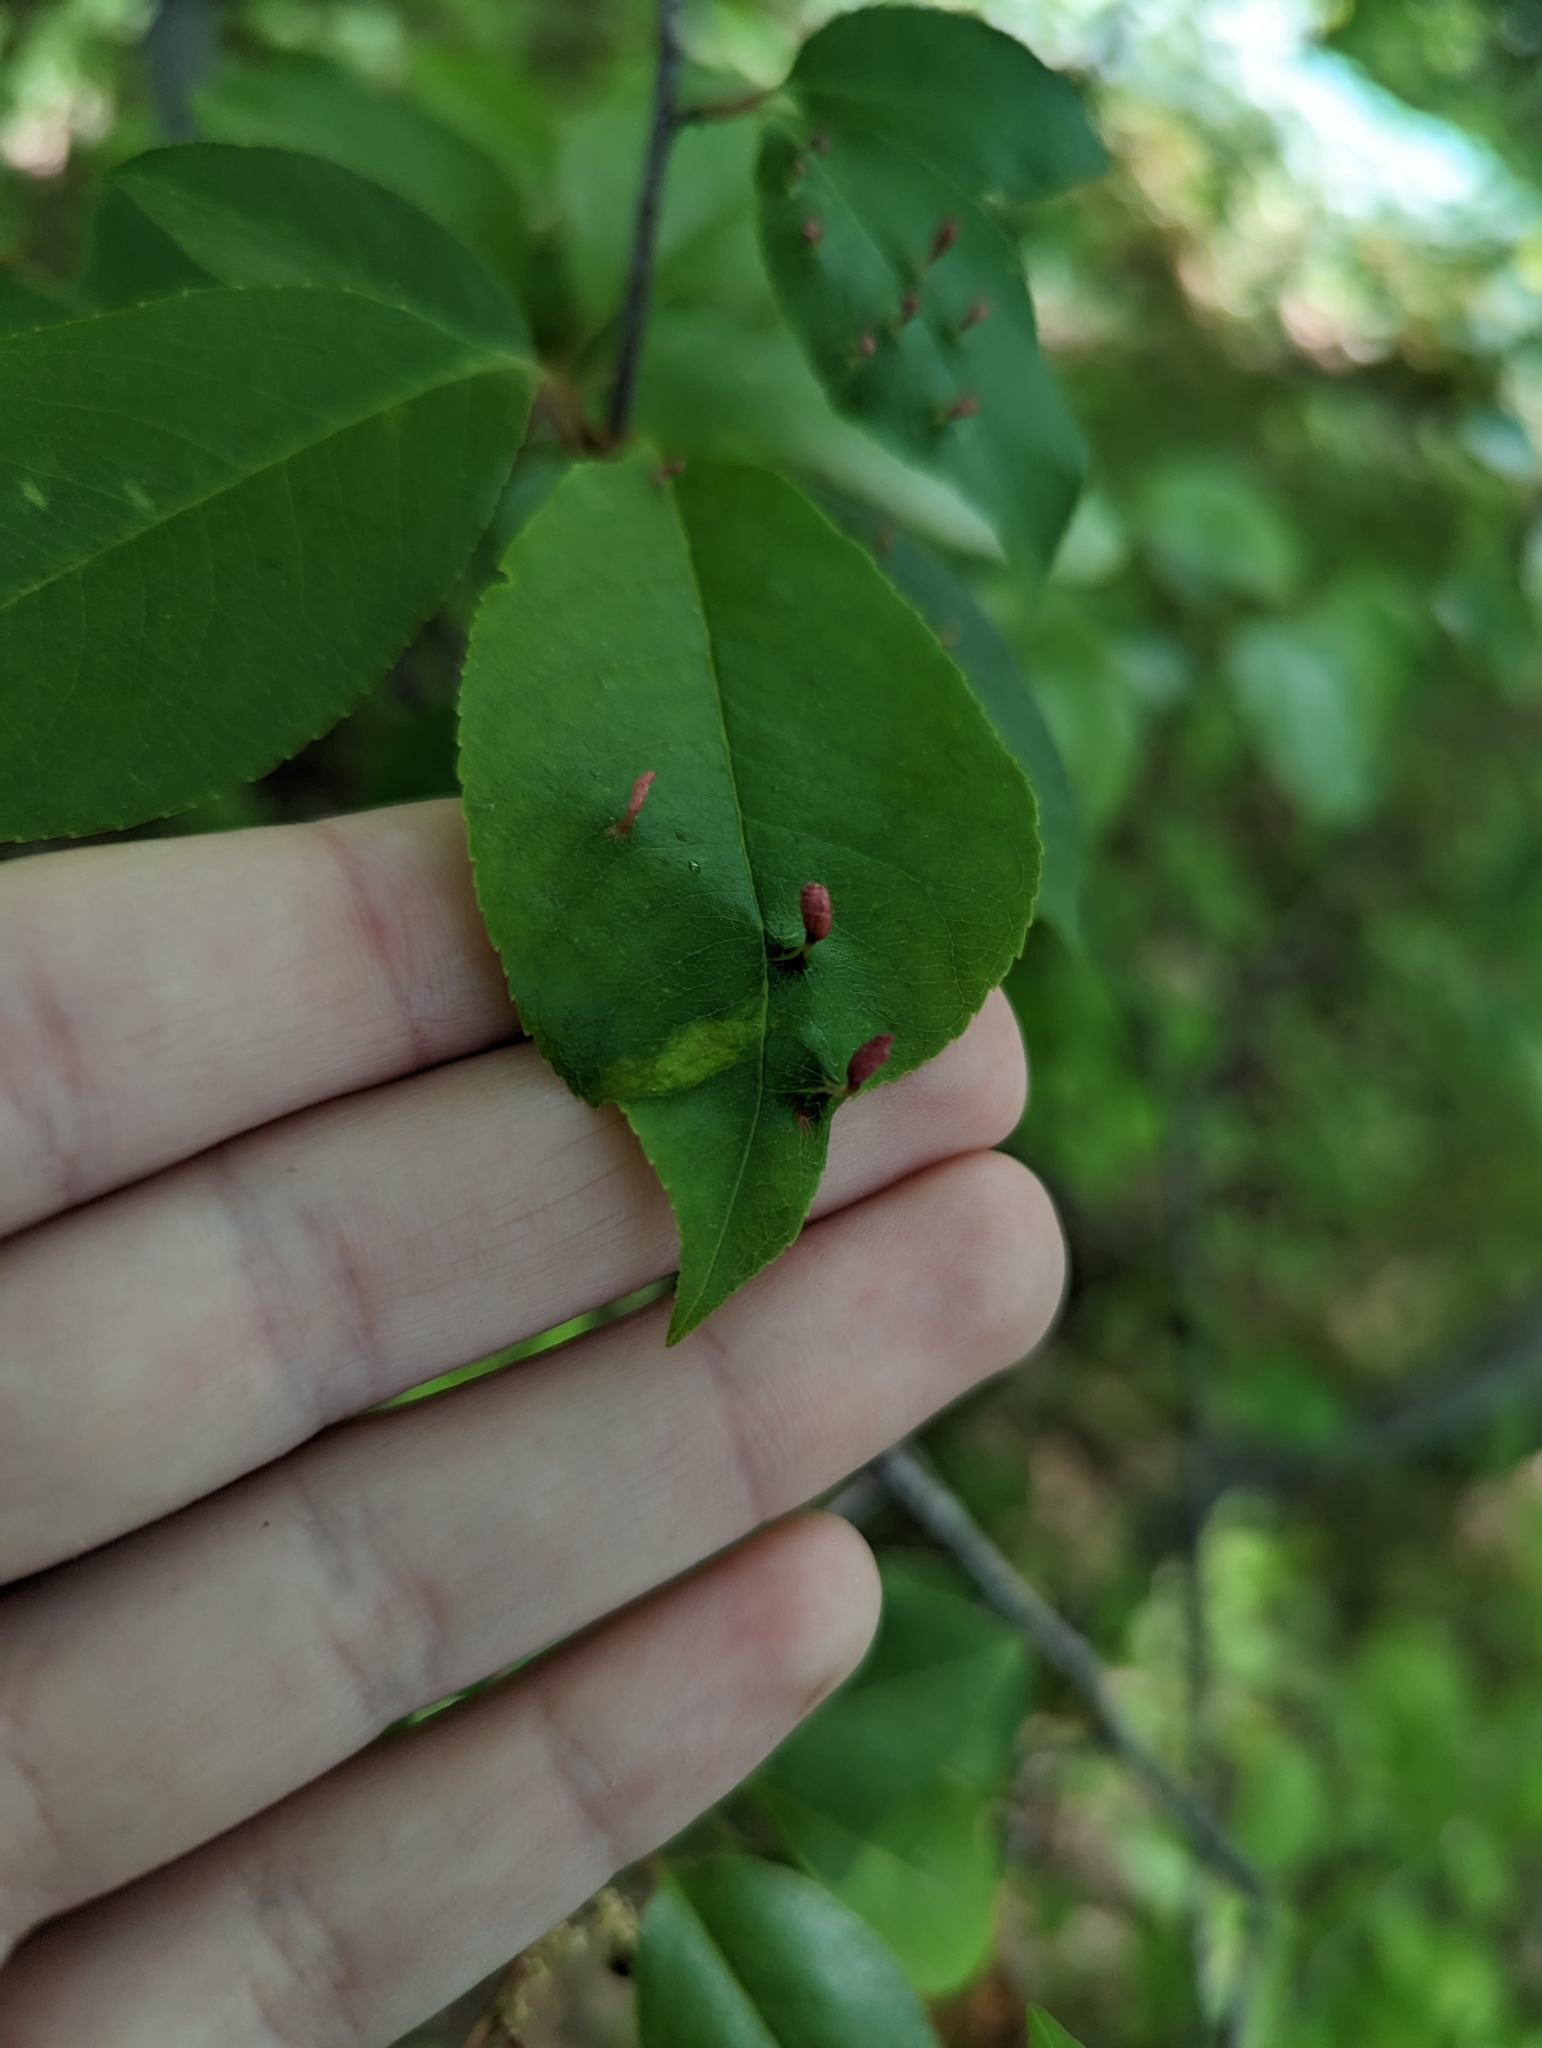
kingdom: Animalia
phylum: Arthropoda
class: Arachnida
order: Trombidiformes
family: Eriophyidae
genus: Eriophyes
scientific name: Eriophyes
